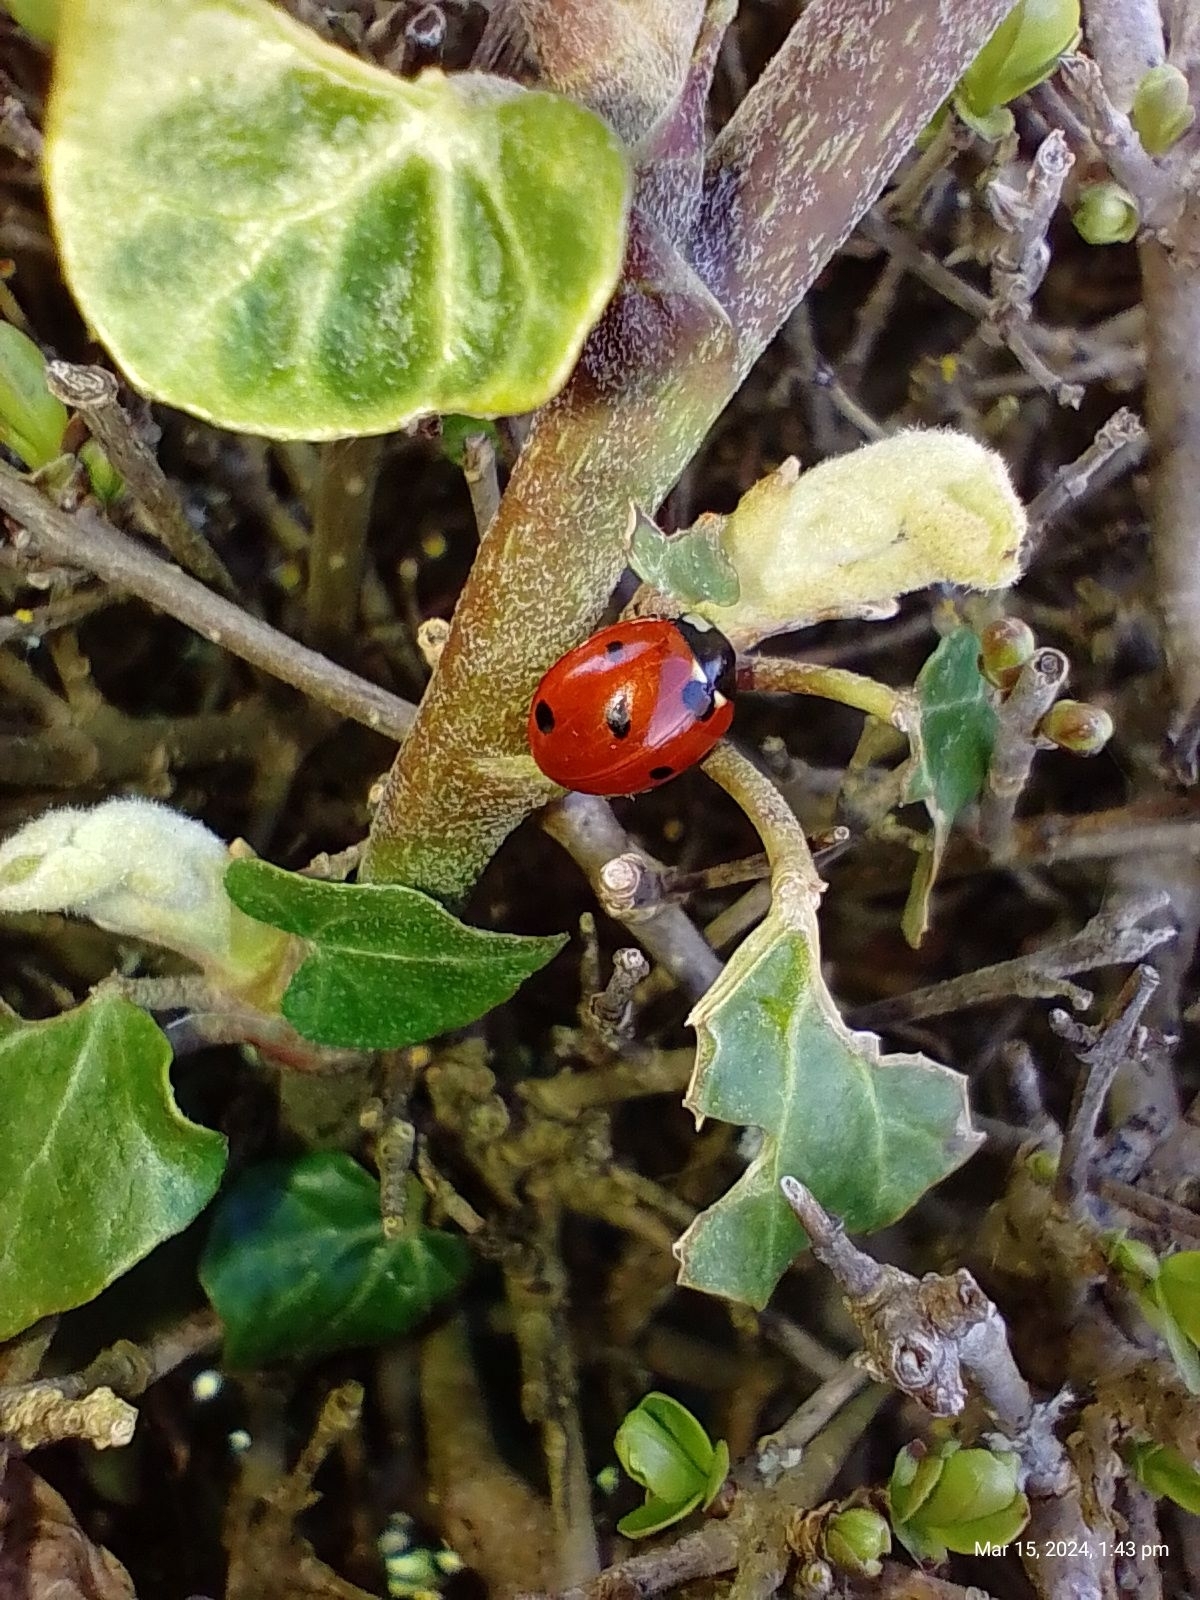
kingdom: Animalia
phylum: Arthropoda
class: Insecta
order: Coleoptera
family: Coccinellidae
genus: Coccinella
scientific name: Coccinella septempunctata
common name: Sevenspotted lady beetle
